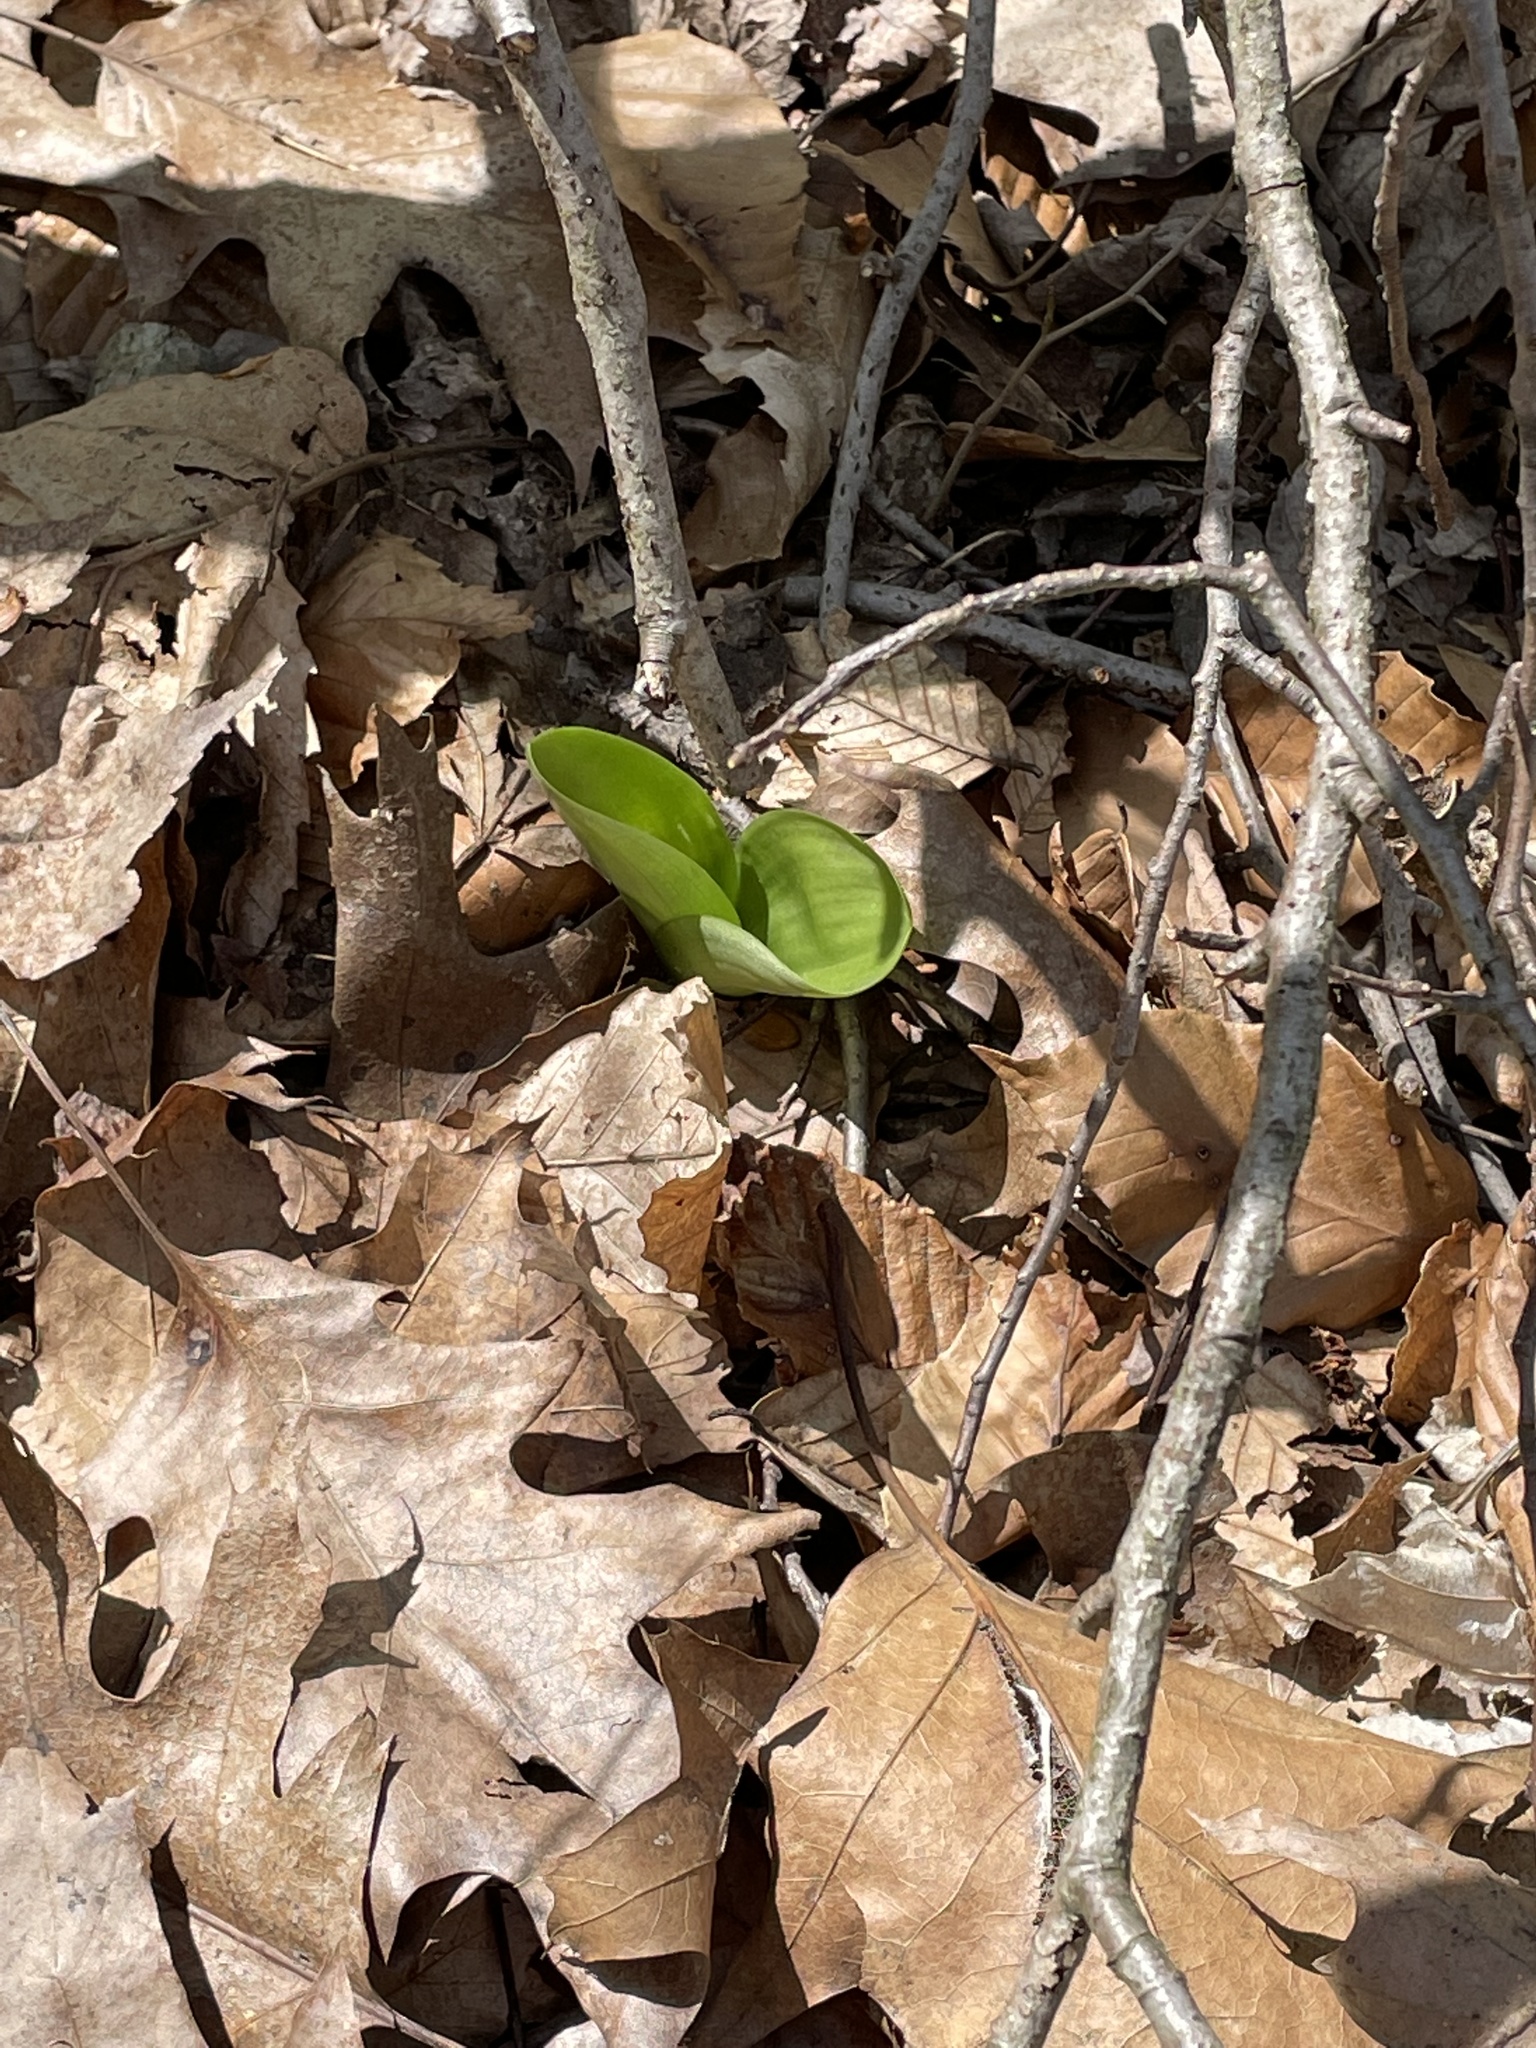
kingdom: Plantae
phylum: Tracheophyta
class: Liliopsida
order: Asparagales
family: Orchidaceae
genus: Platanthera
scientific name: Platanthera orbiculata
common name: Large round-leaved orchid
